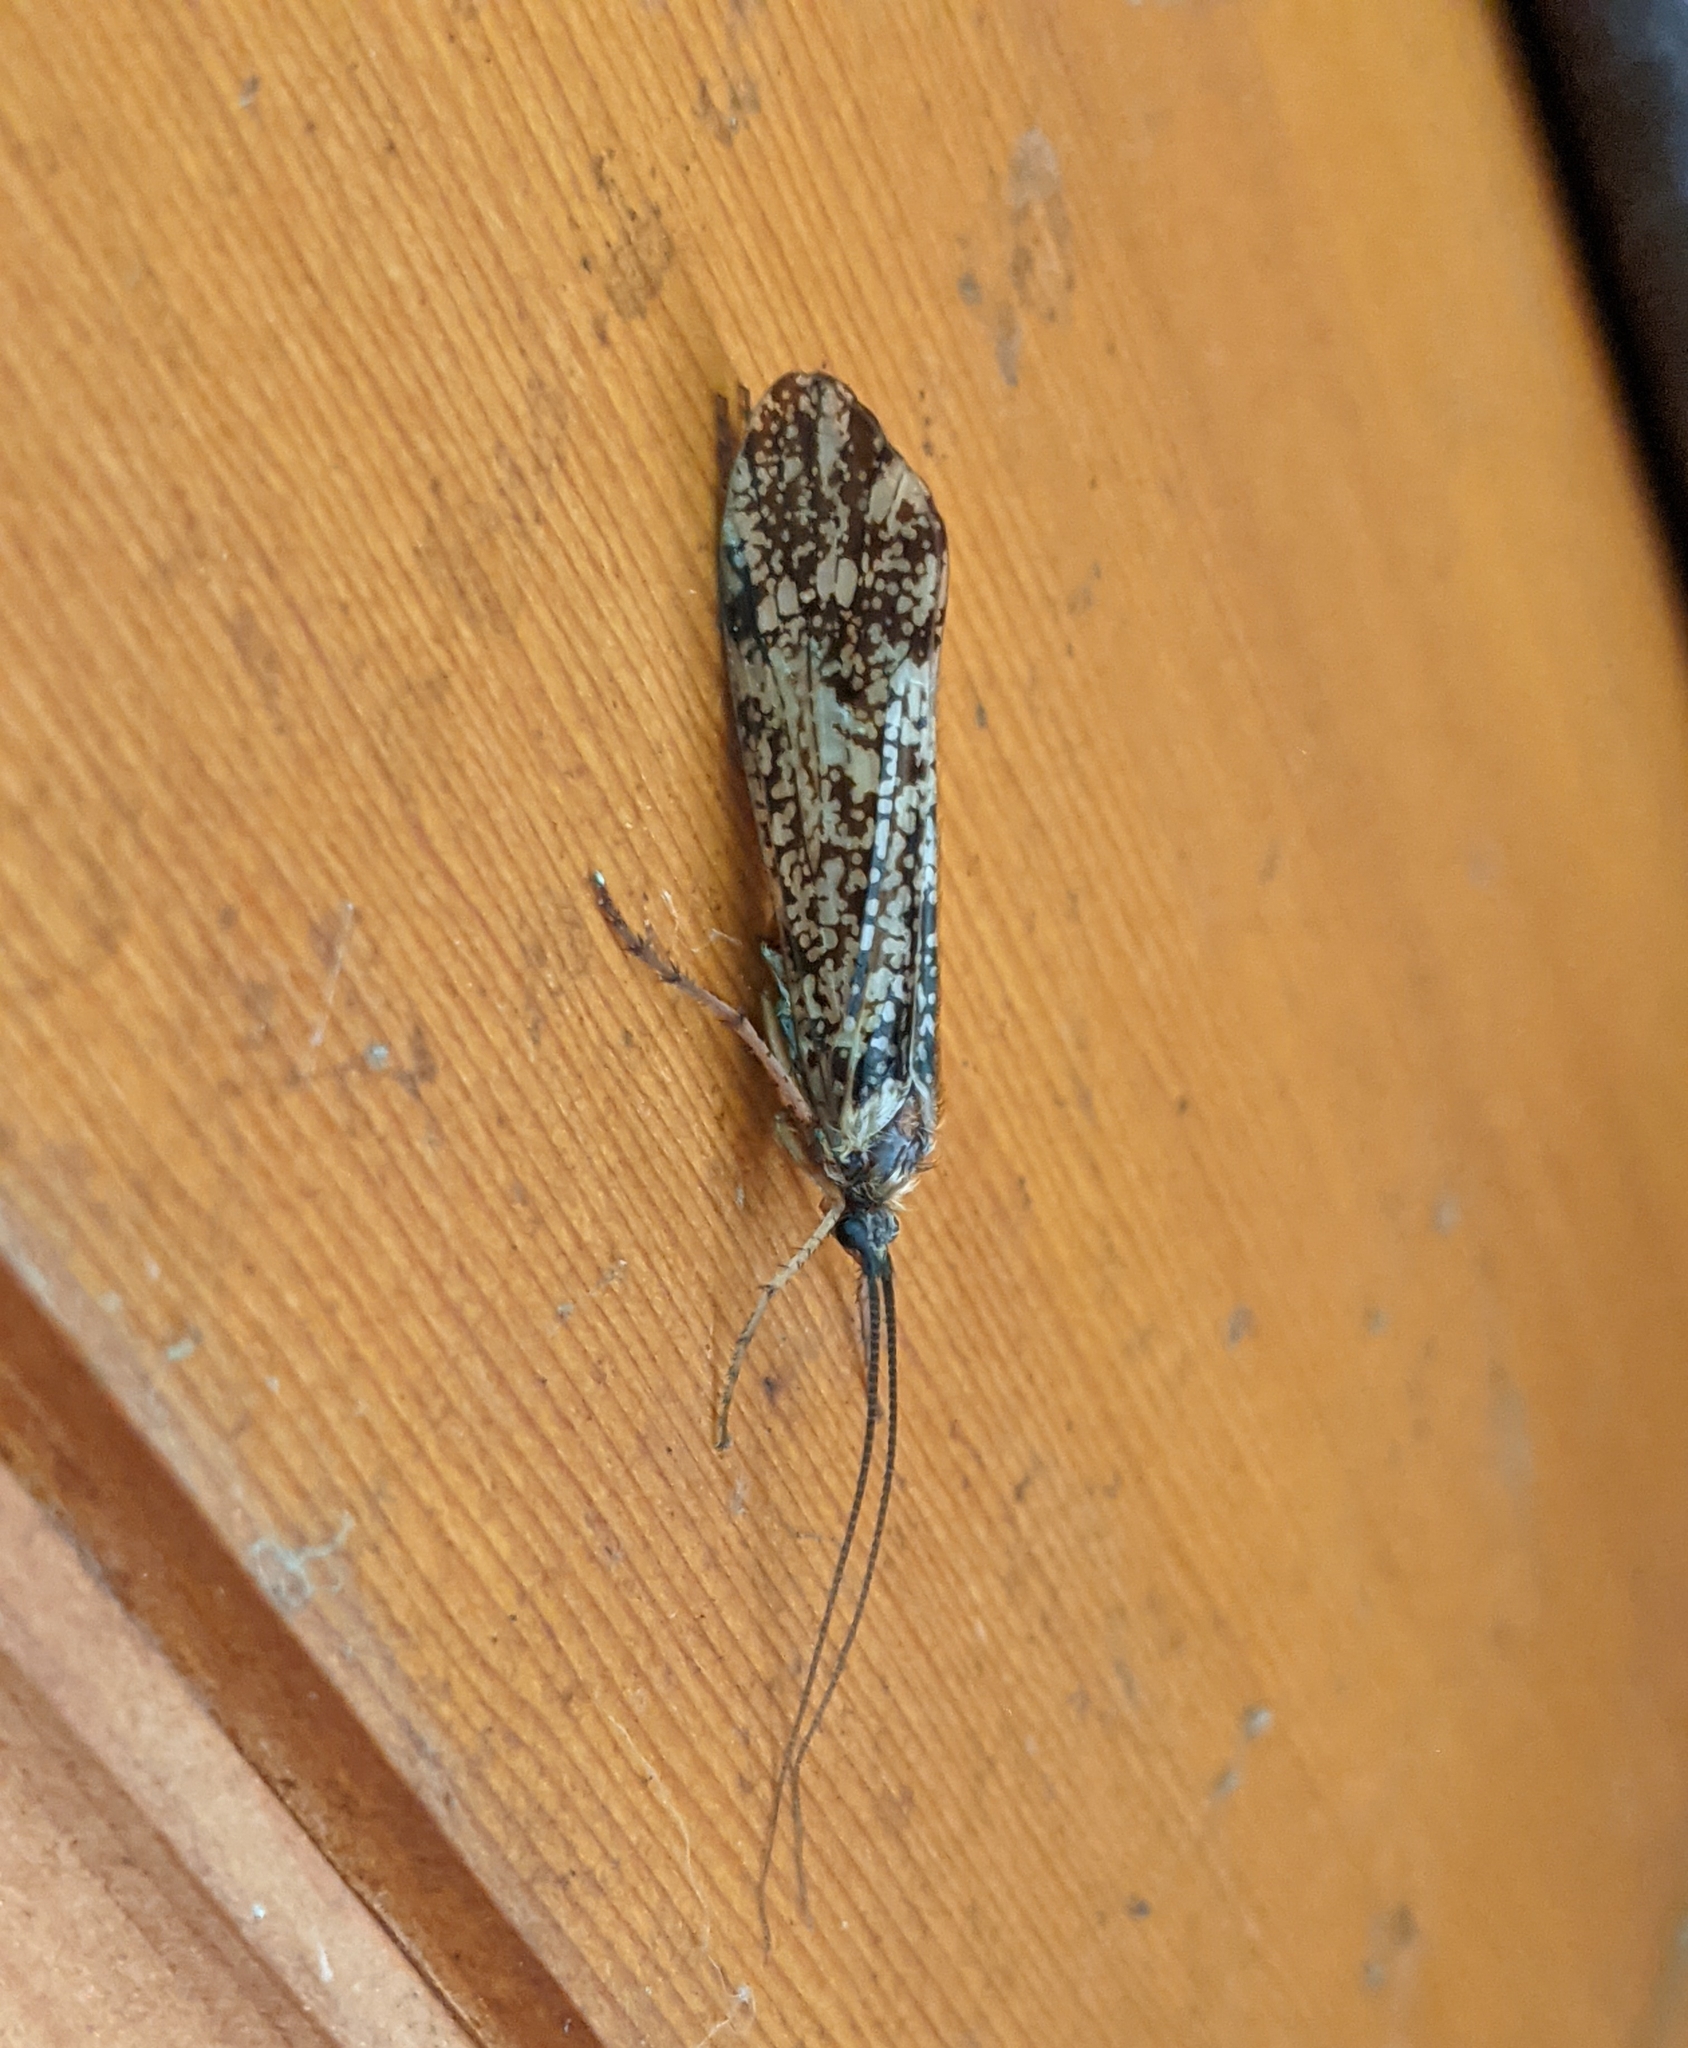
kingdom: Animalia
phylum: Arthropoda
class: Insecta
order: Trichoptera
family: Limnephilidae
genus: Clistoronia
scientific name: Clistoronia magnifica
